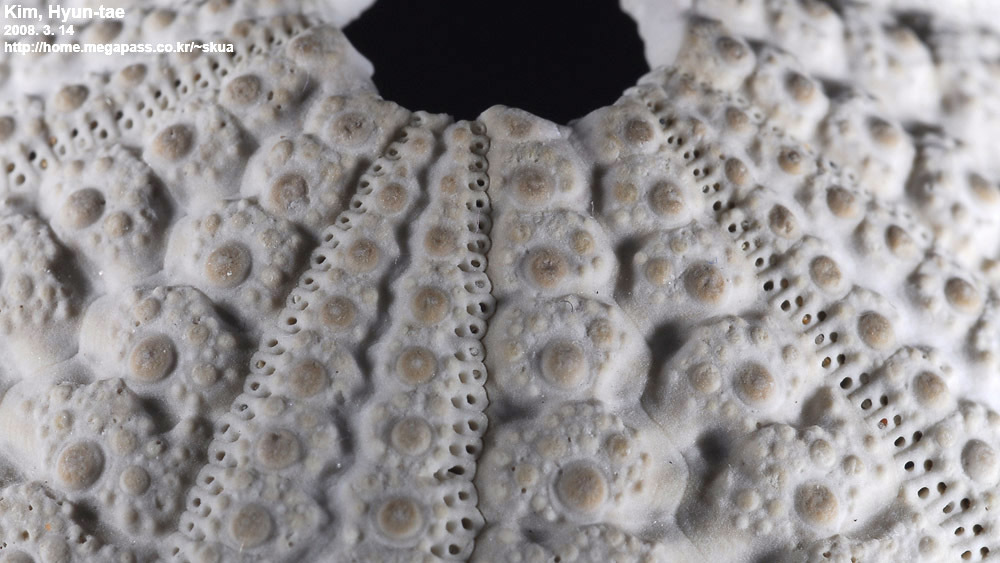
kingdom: Animalia
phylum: Echinodermata
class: Echinoidea
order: Camarodonta
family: Strongylocentrotidae
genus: Strongylocentrotus
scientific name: Strongylocentrotus intermedius
